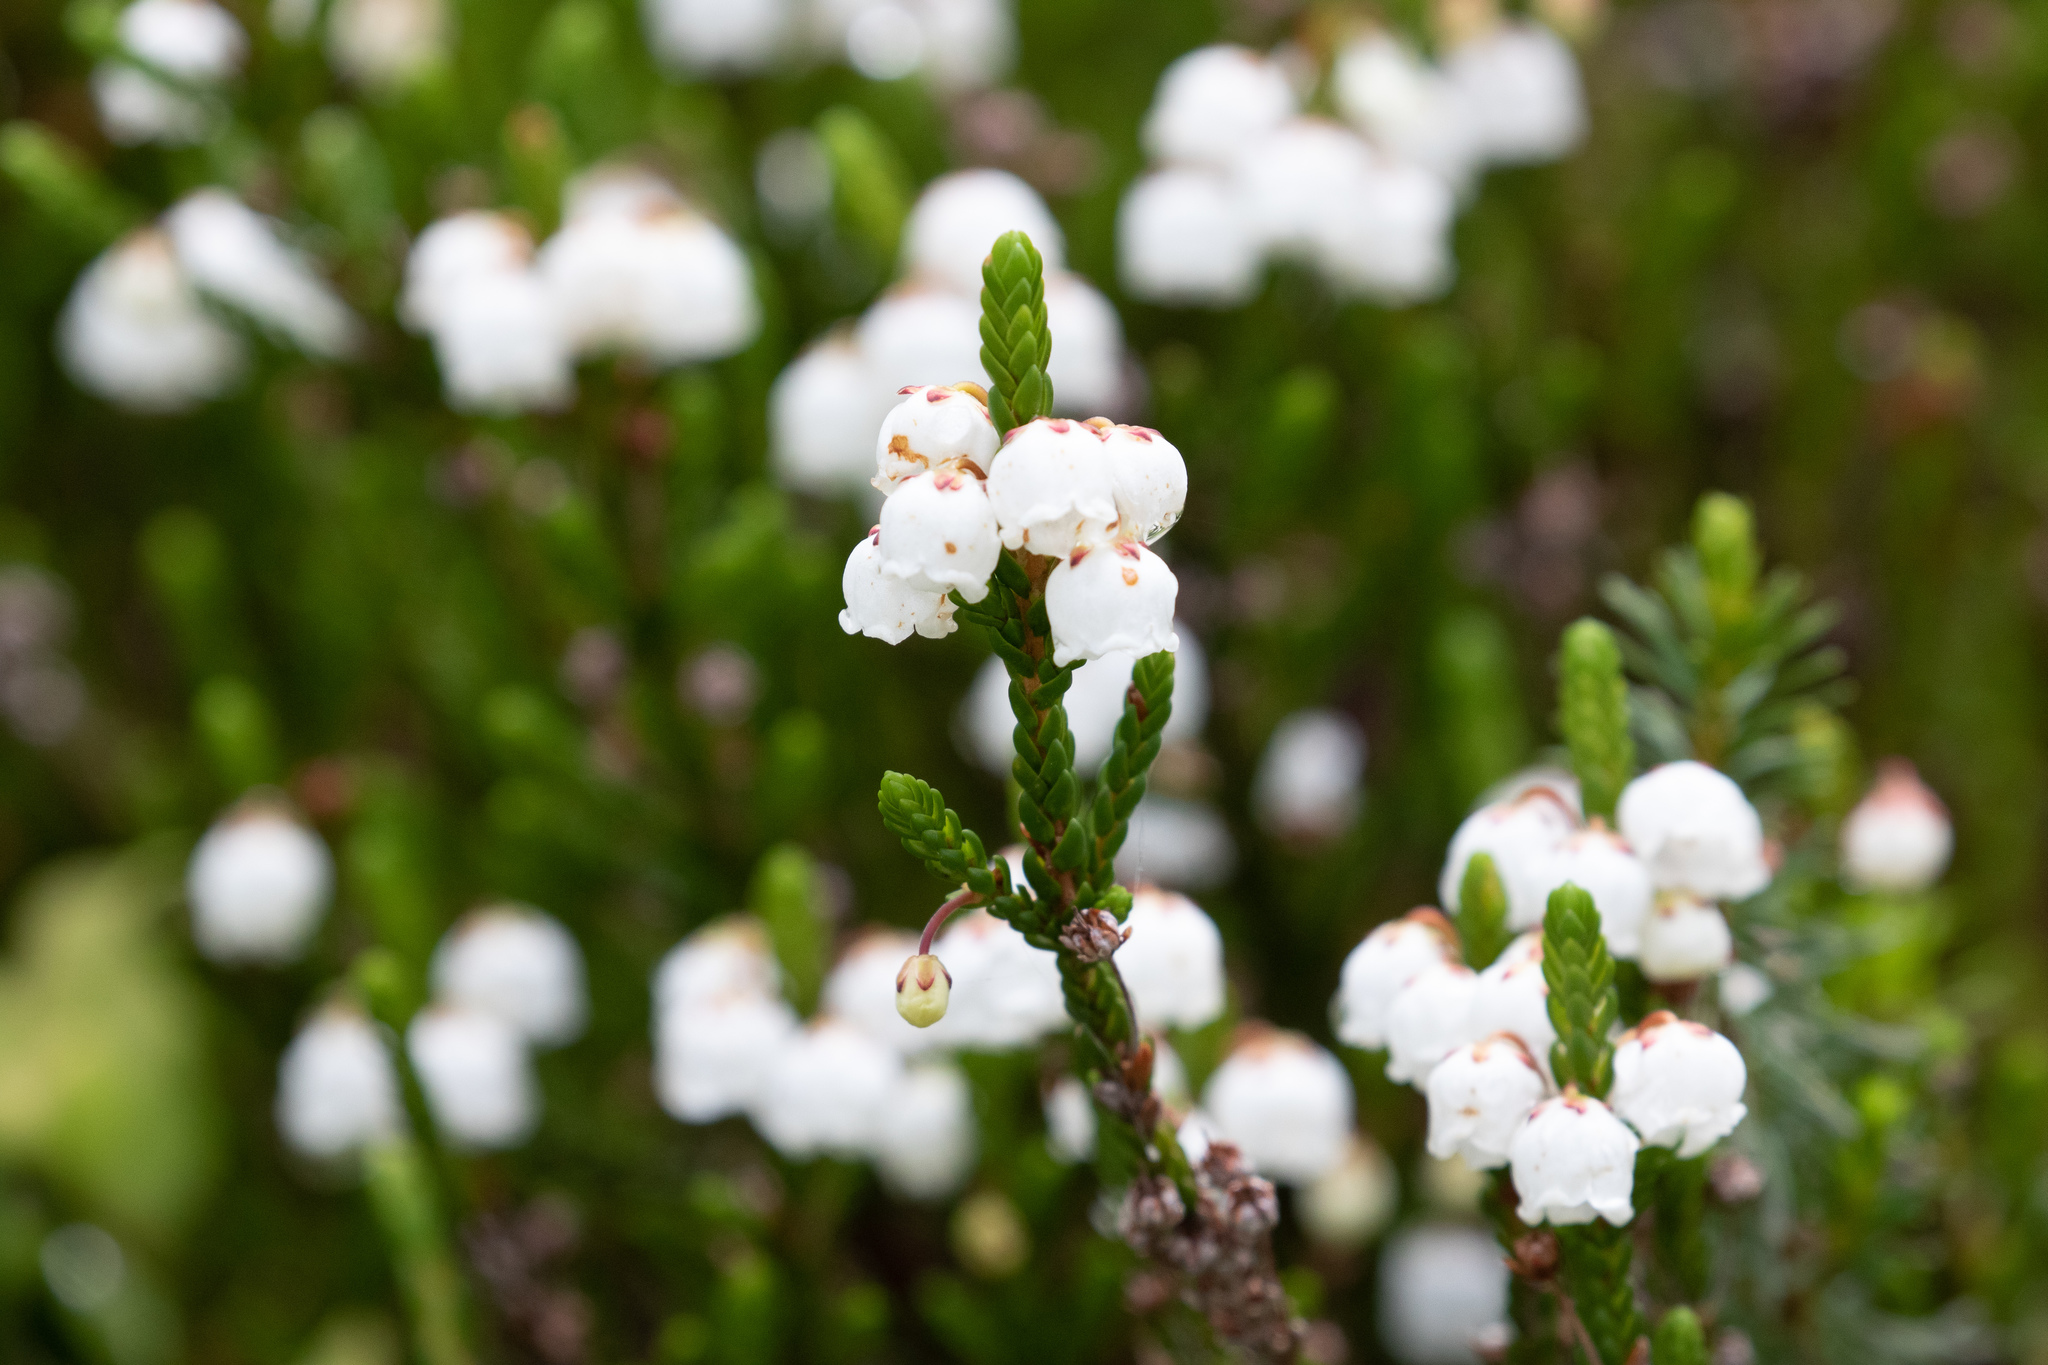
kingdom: Plantae
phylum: Tracheophyta
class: Magnoliopsida
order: Ericales
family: Ericaceae
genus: Cassiope
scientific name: Cassiope mertensiana
